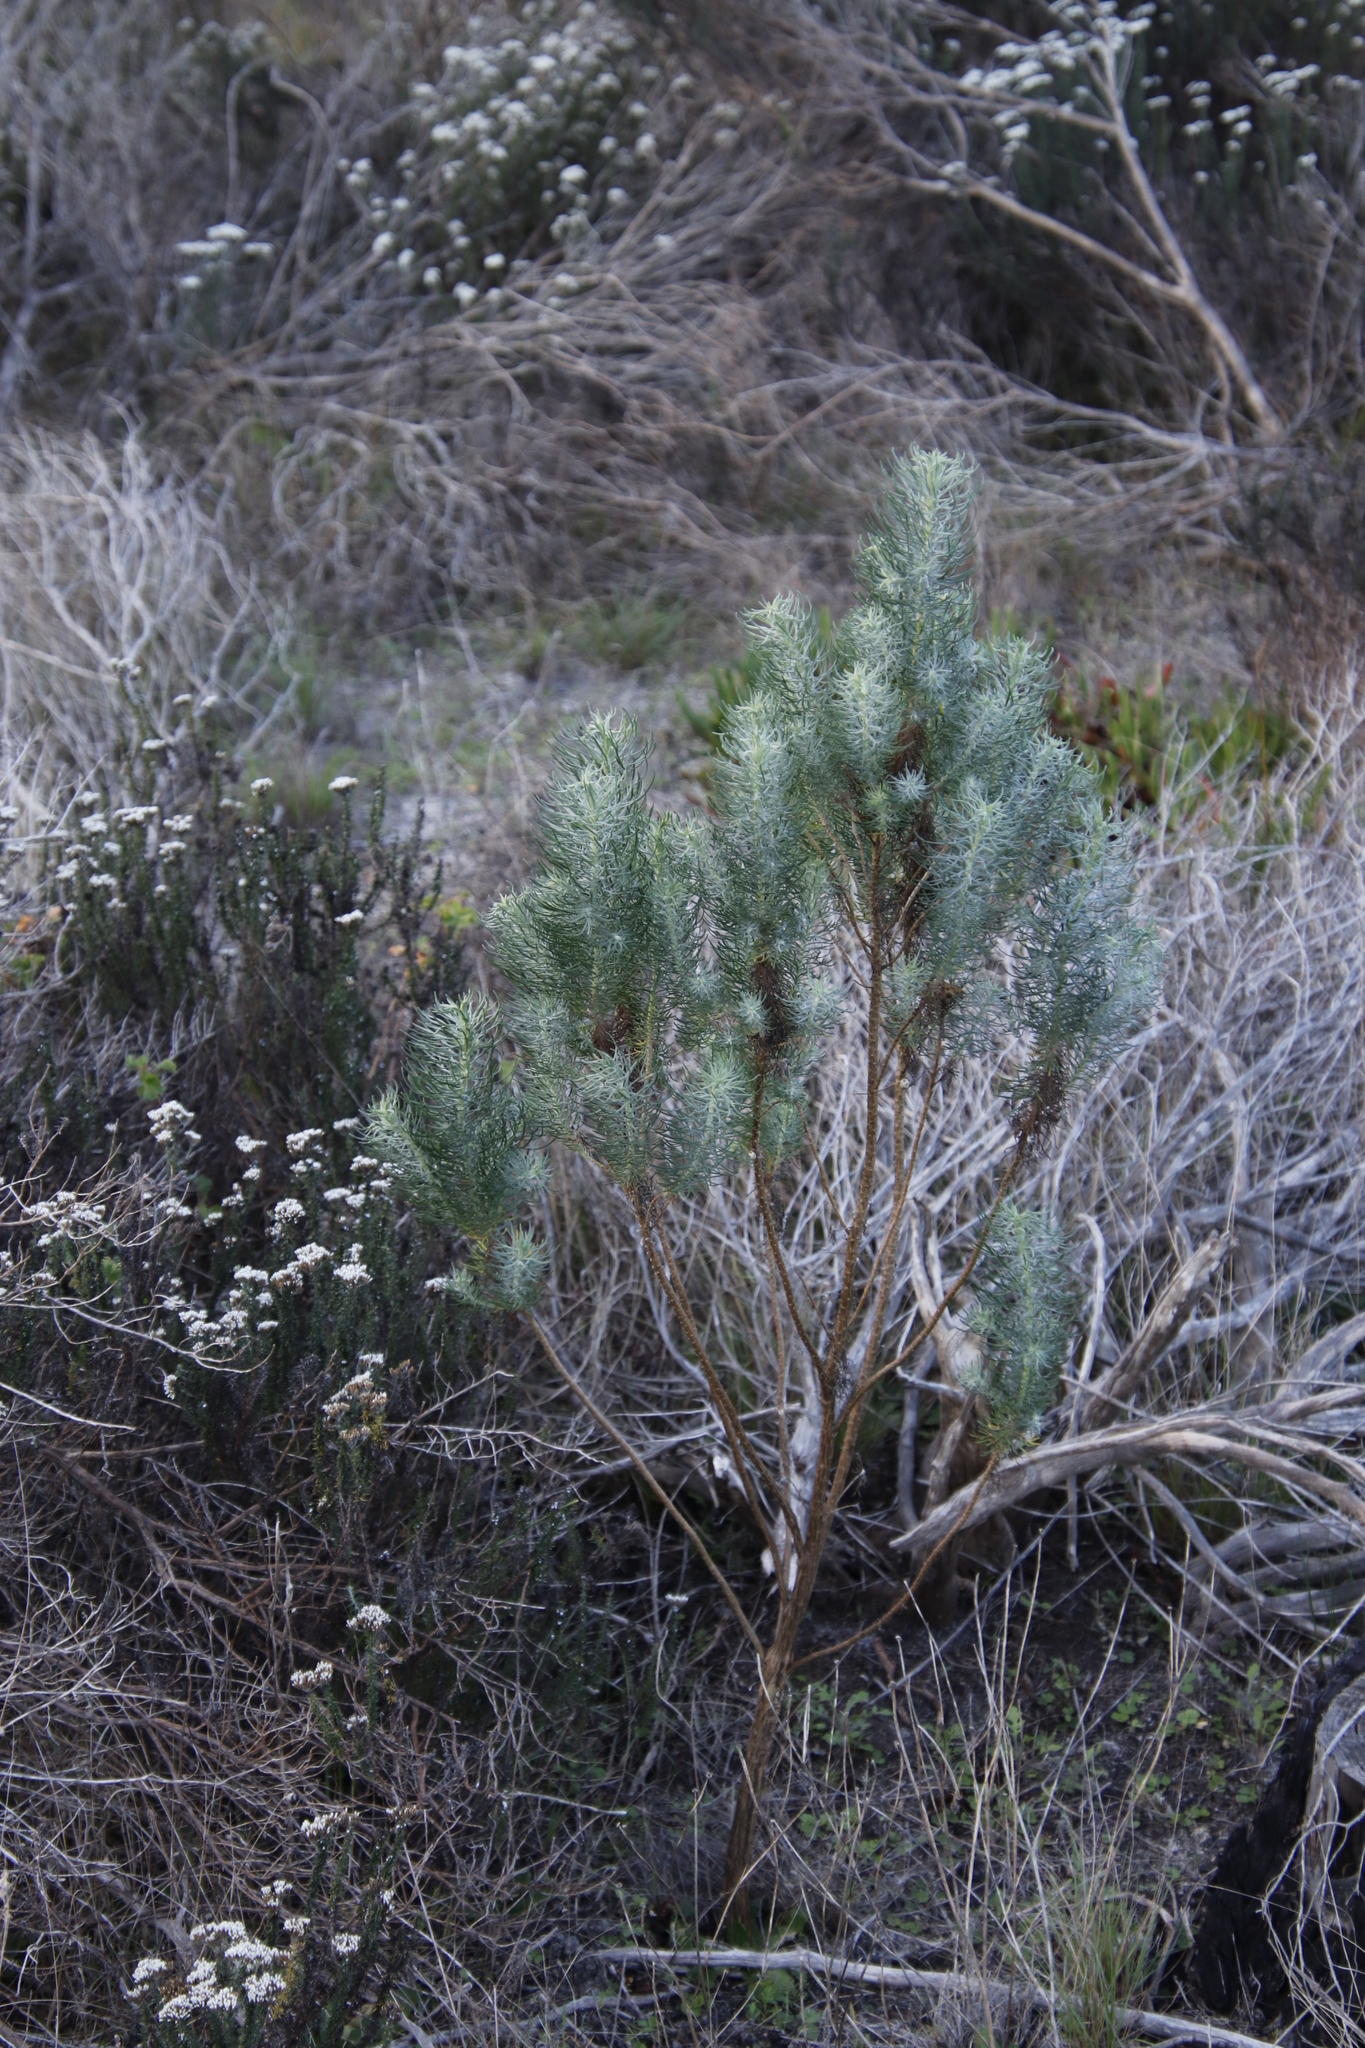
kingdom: Plantae
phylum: Tracheophyta
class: Magnoliopsida
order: Asterales
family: Asteraceae
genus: Athanasia
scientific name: Athanasia trifurcata
